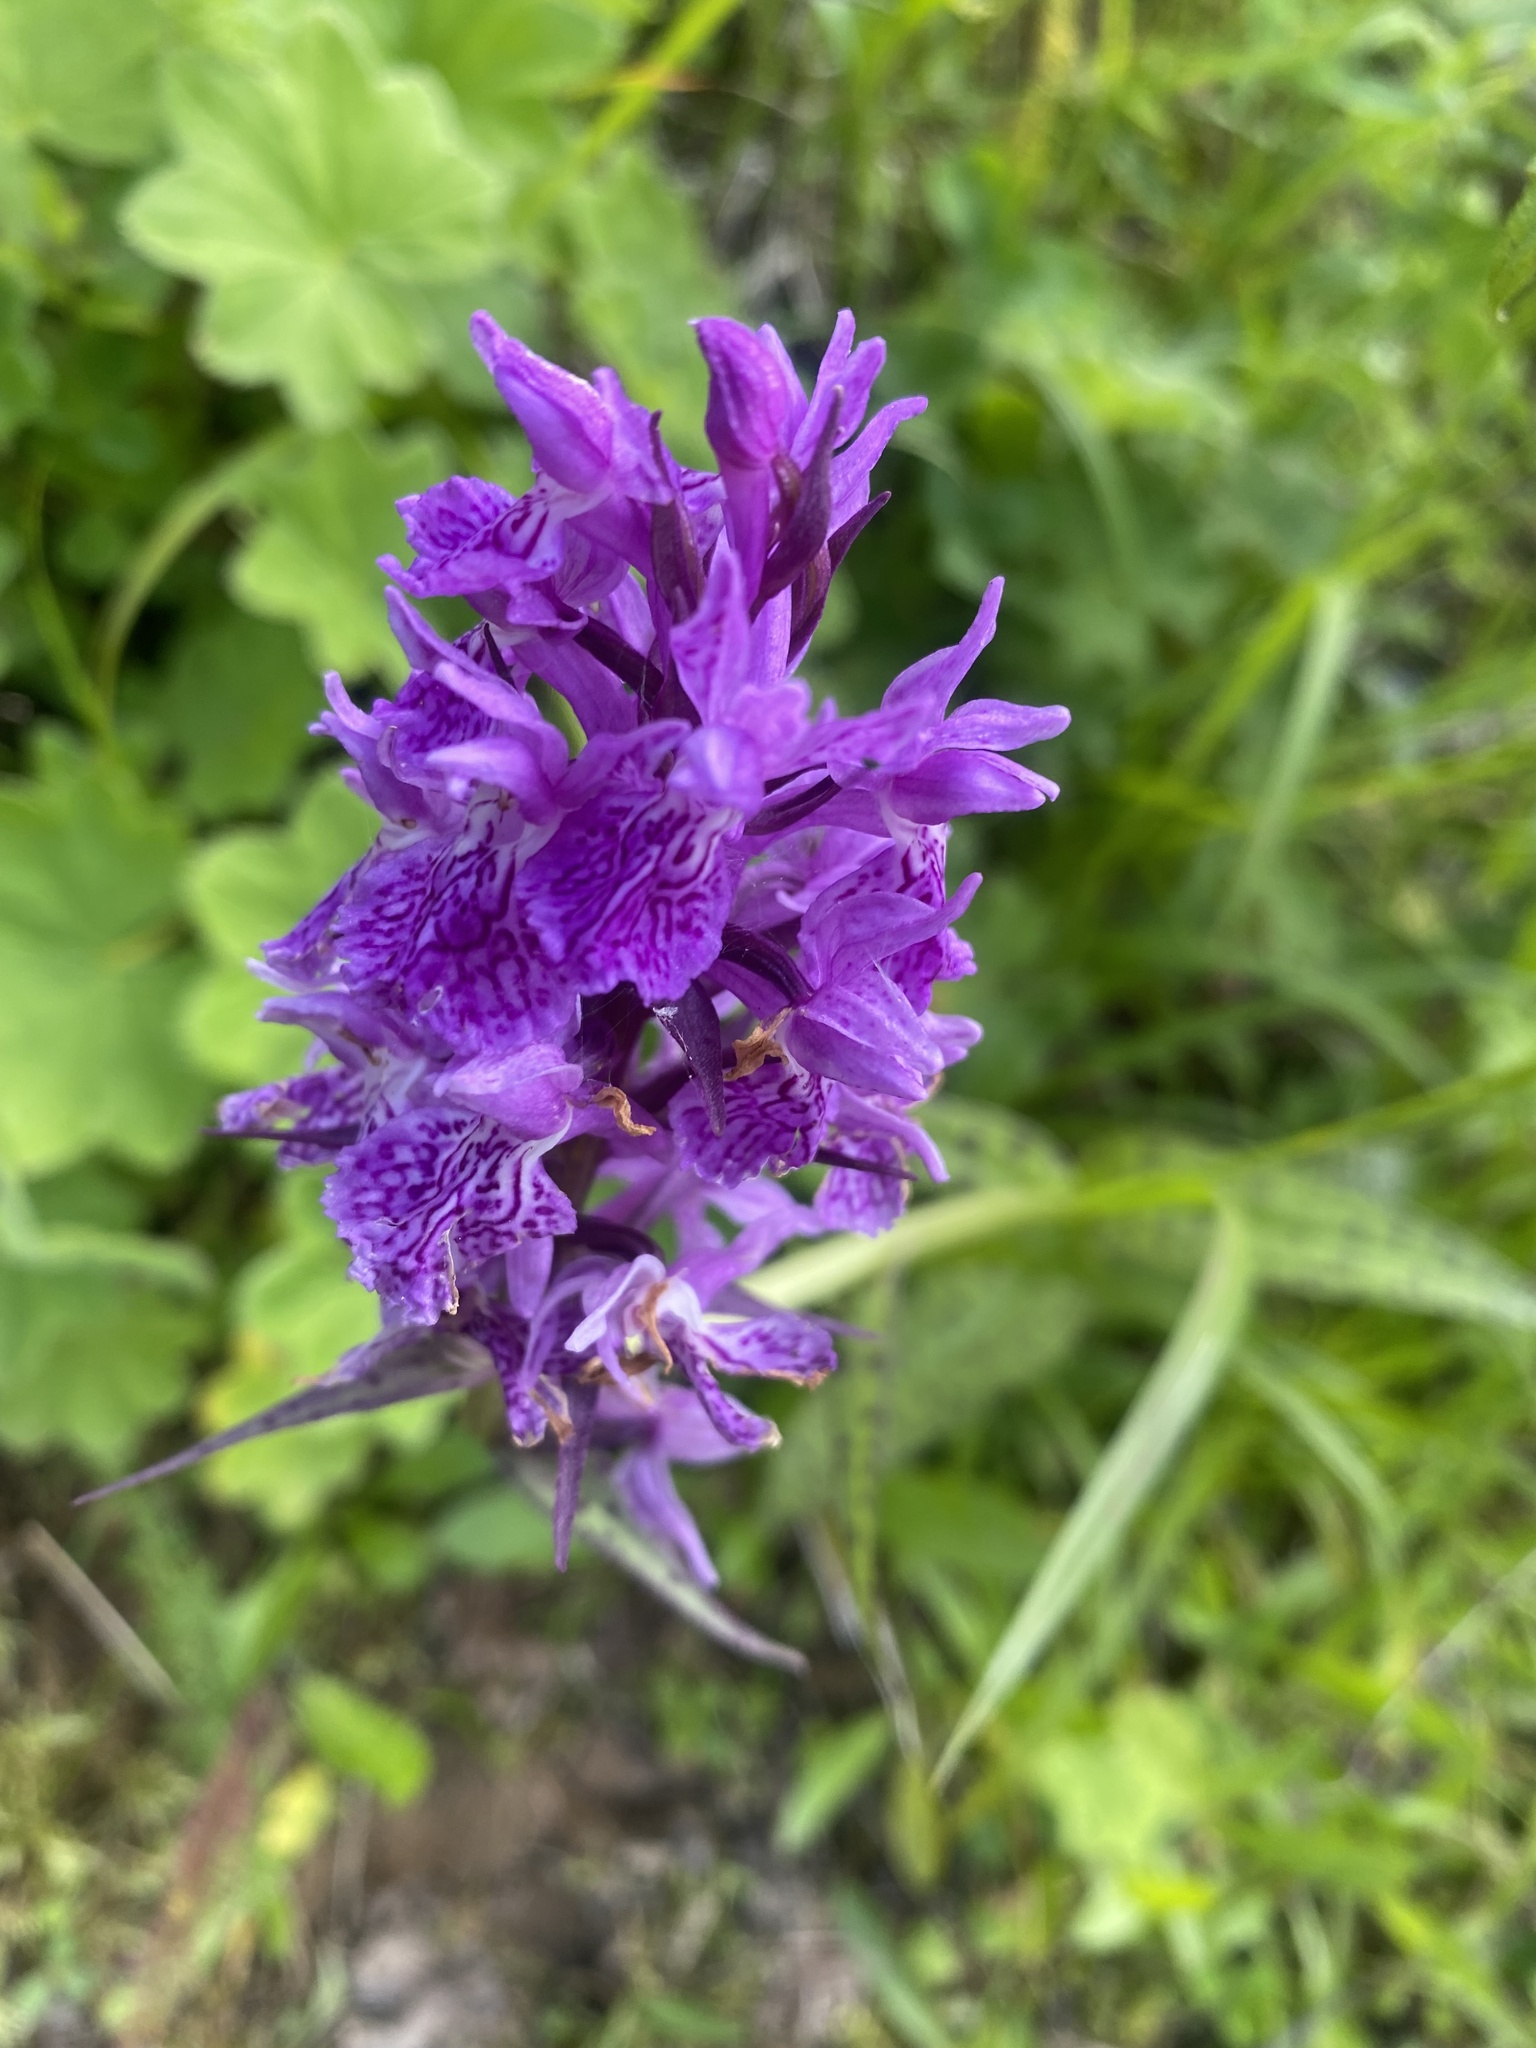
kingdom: Plantae
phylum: Tracheophyta
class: Liliopsida
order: Asparagales
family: Orchidaceae
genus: Dactylorhiza
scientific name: Dactylorhiza euxina
